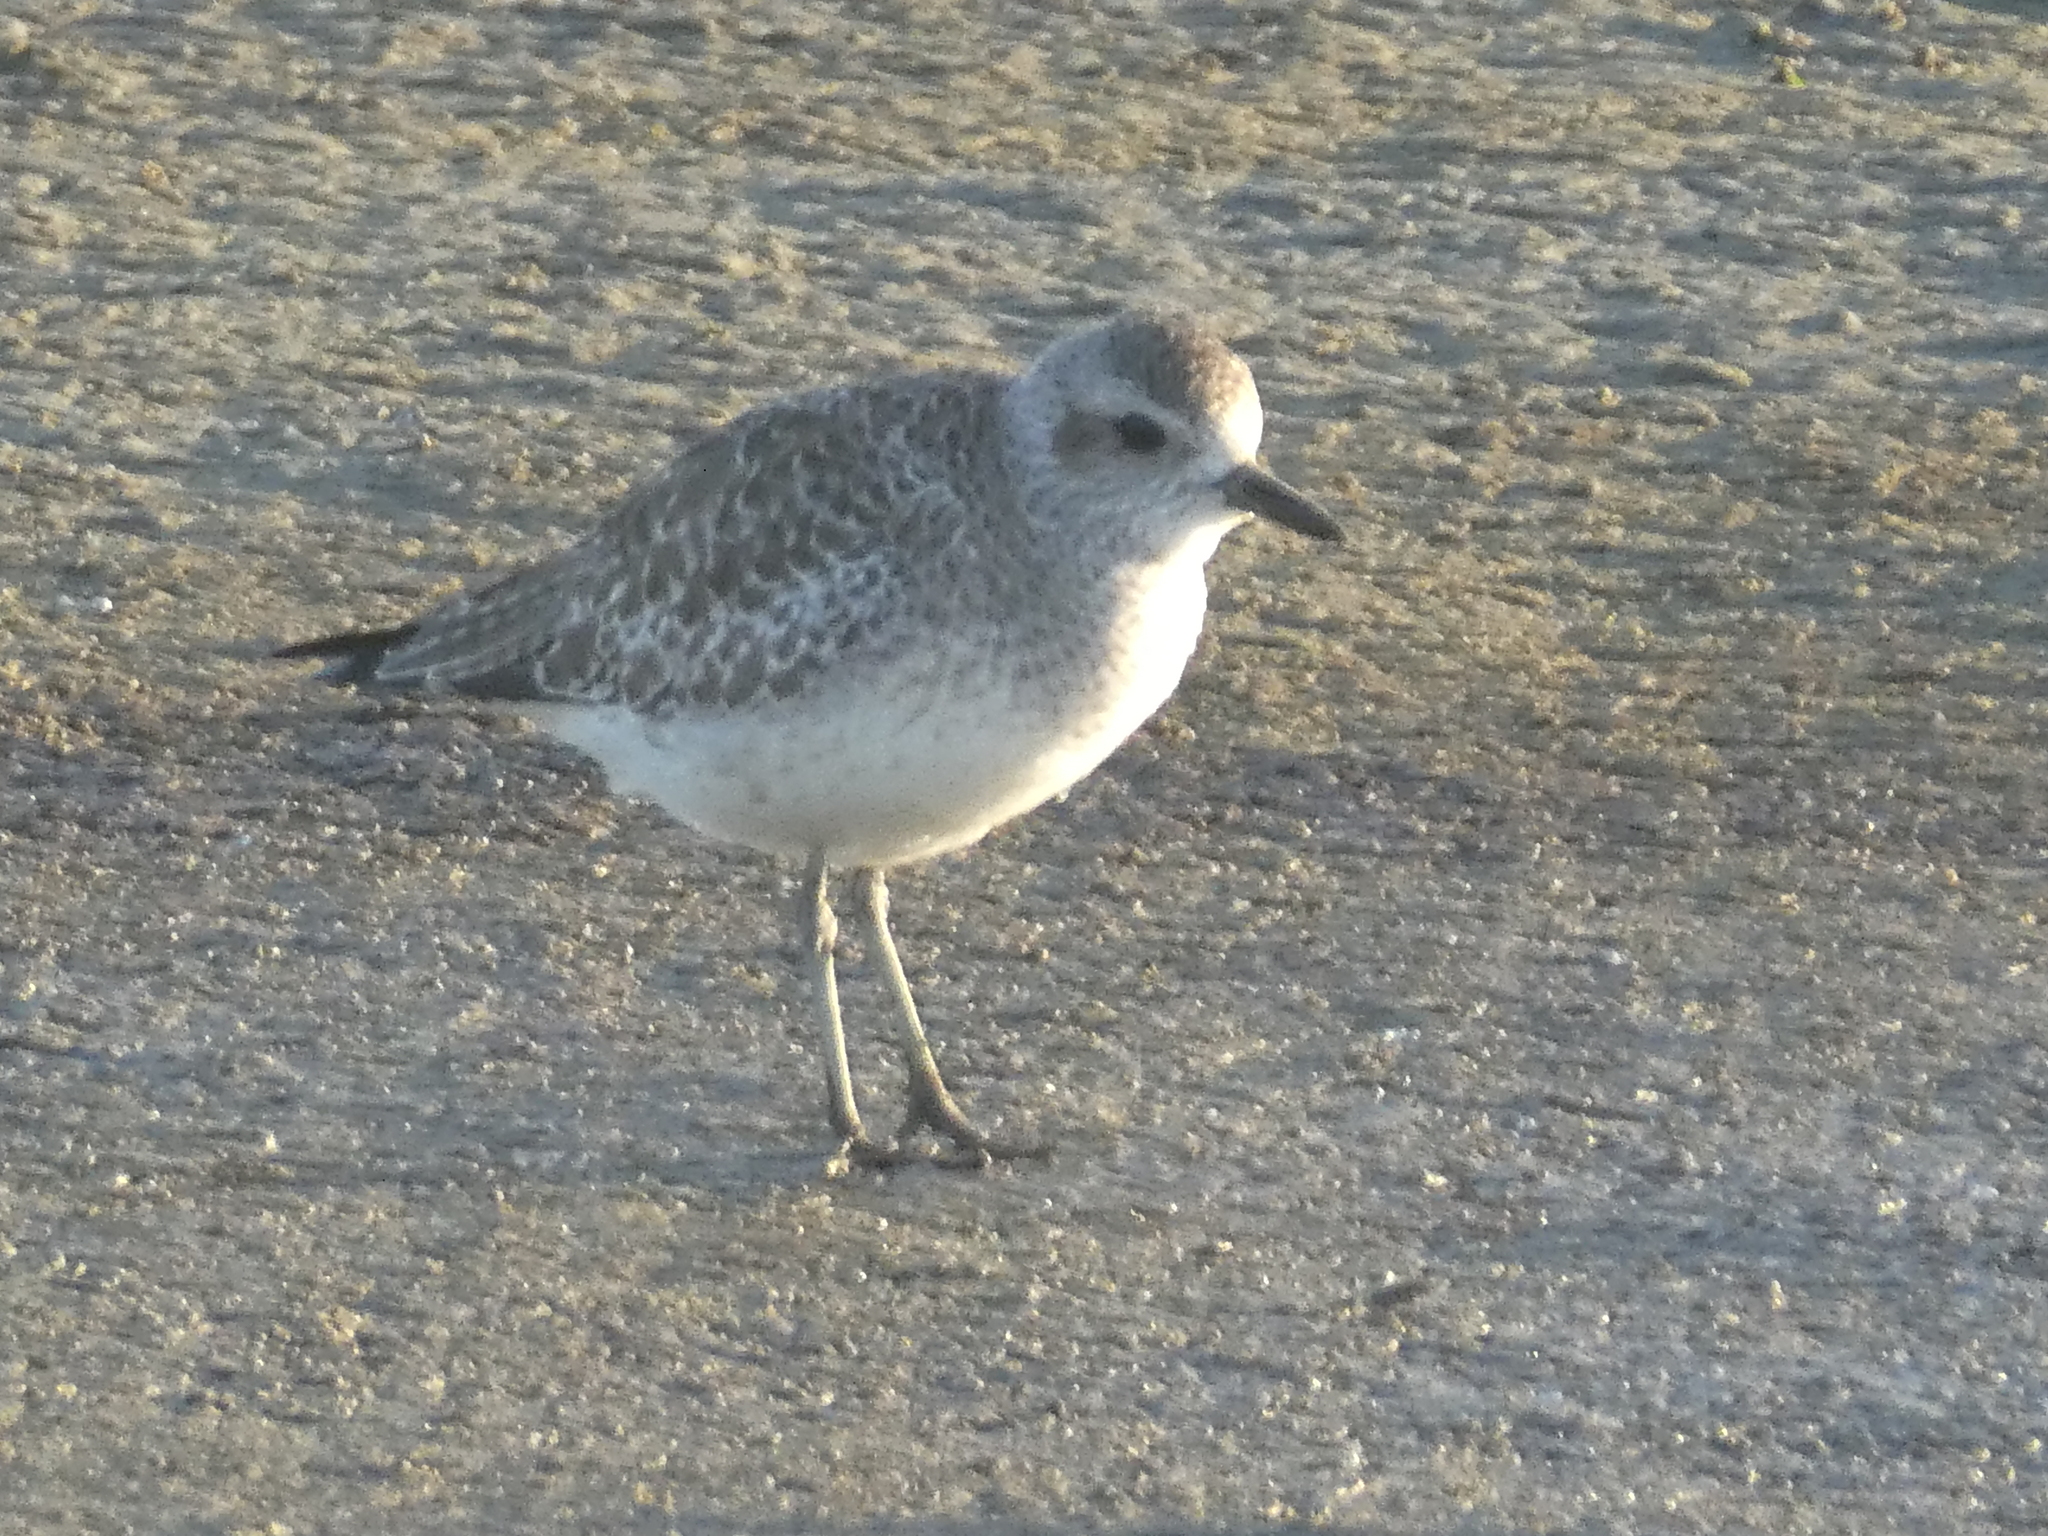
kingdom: Animalia
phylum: Chordata
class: Aves
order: Charadriiformes
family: Charadriidae
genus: Pluvialis
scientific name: Pluvialis squatarola
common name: Grey plover
